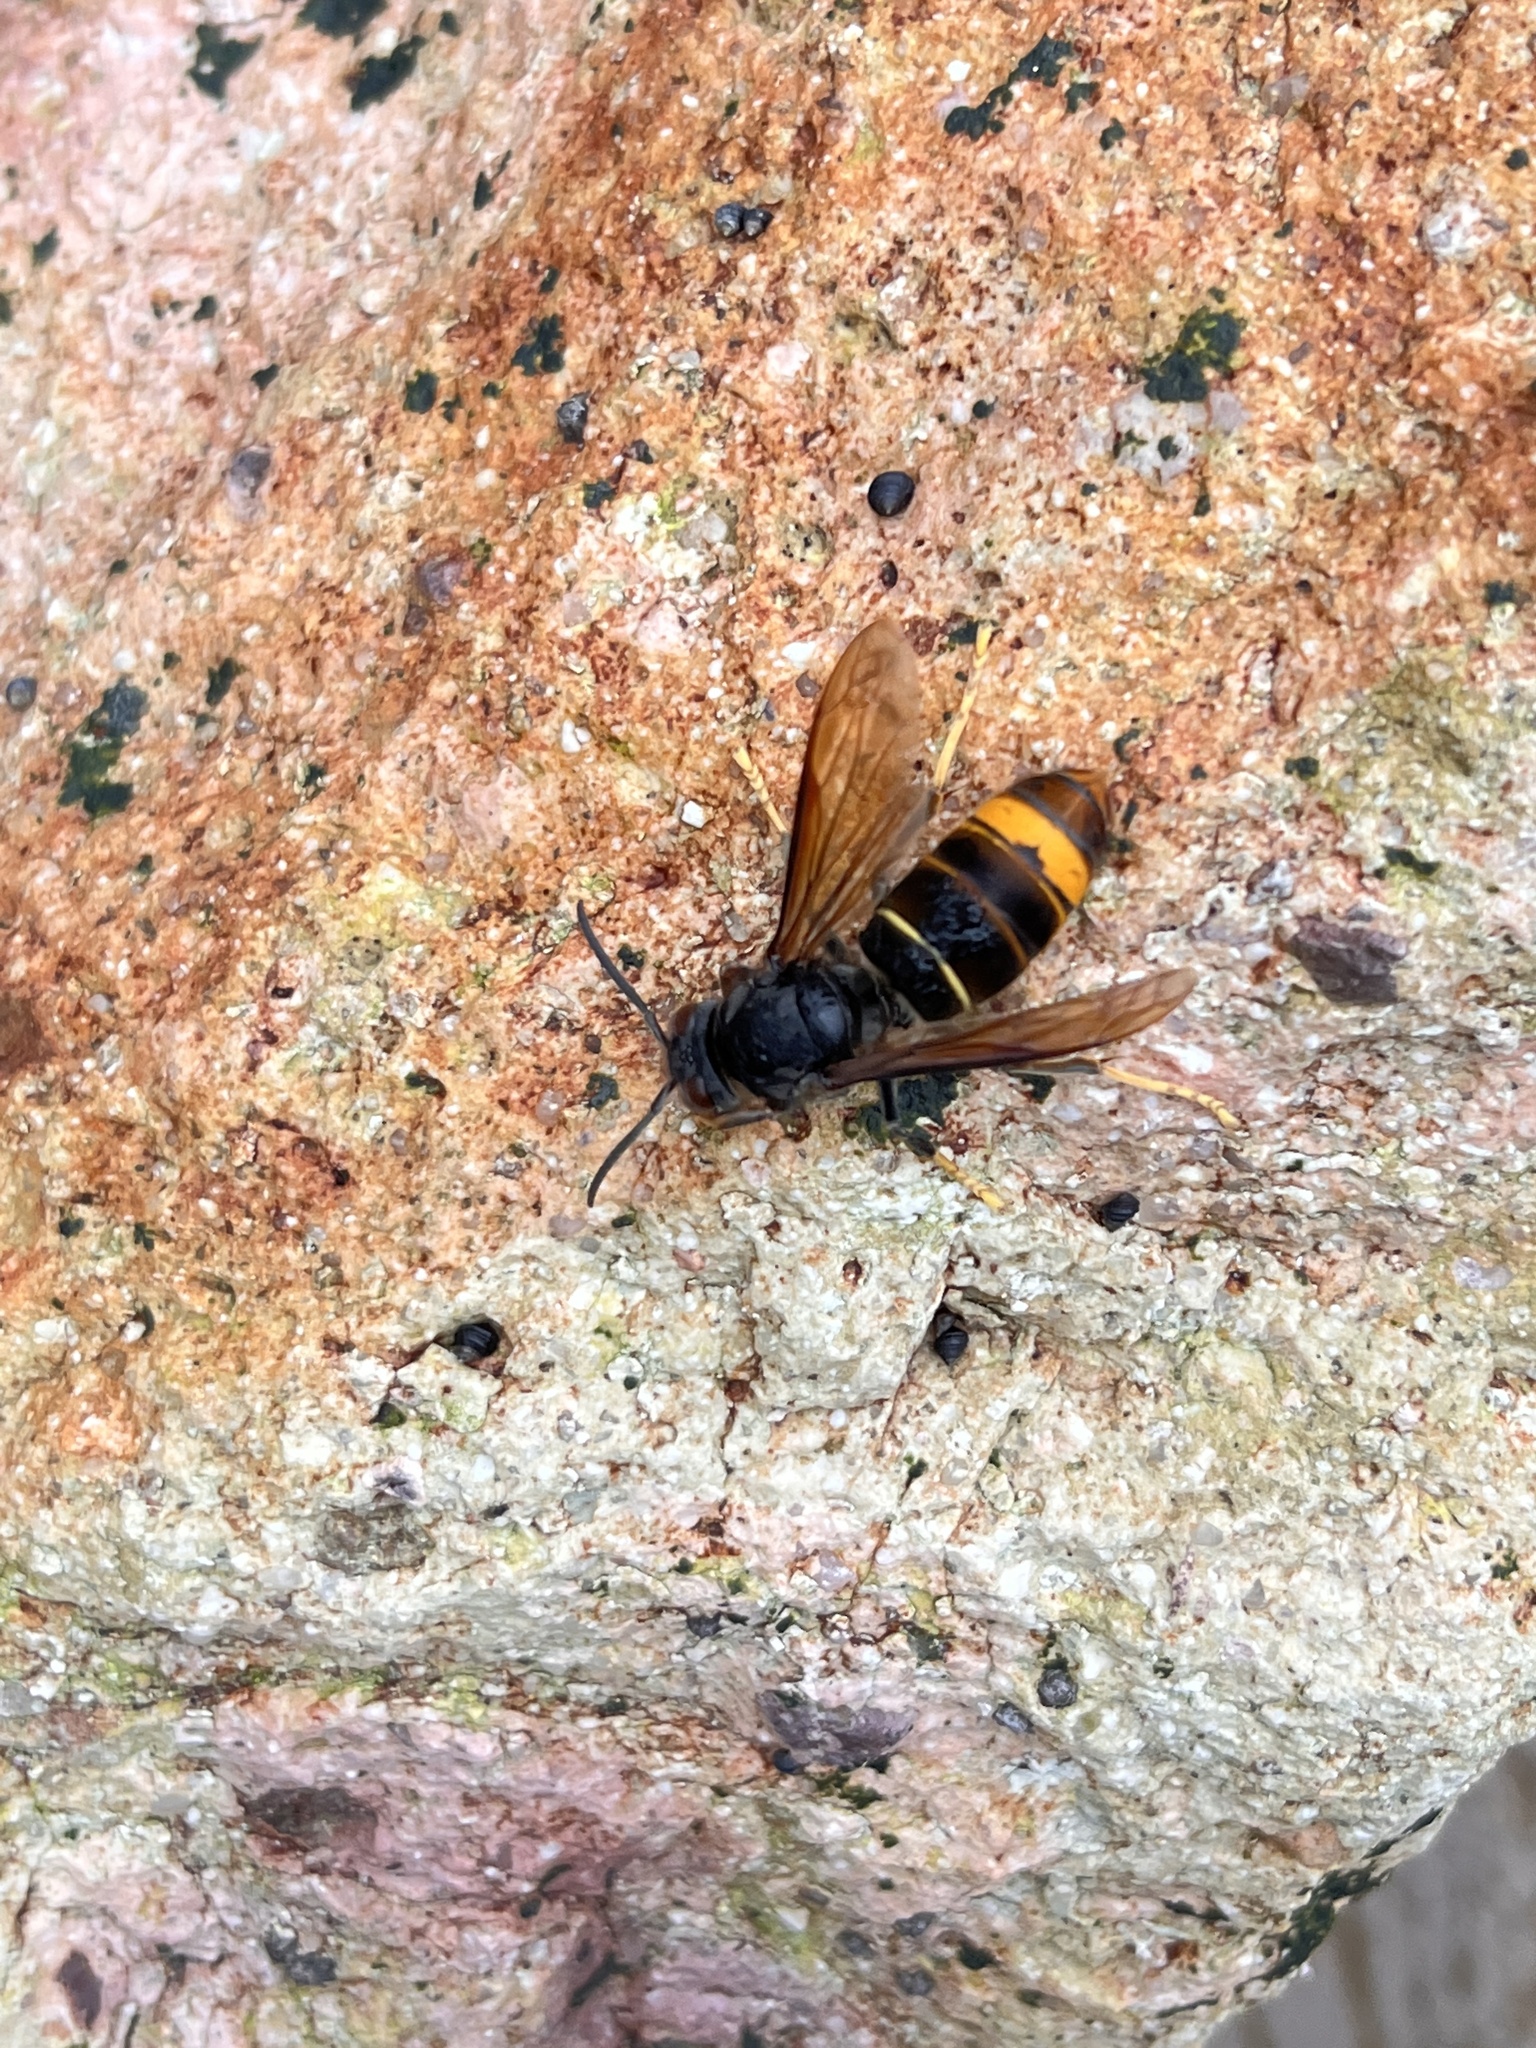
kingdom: Animalia
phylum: Arthropoda
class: Insecta
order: Hymenoptera
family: Vespidae
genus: Vespa
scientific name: Vespa velutina
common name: Asian hornet
